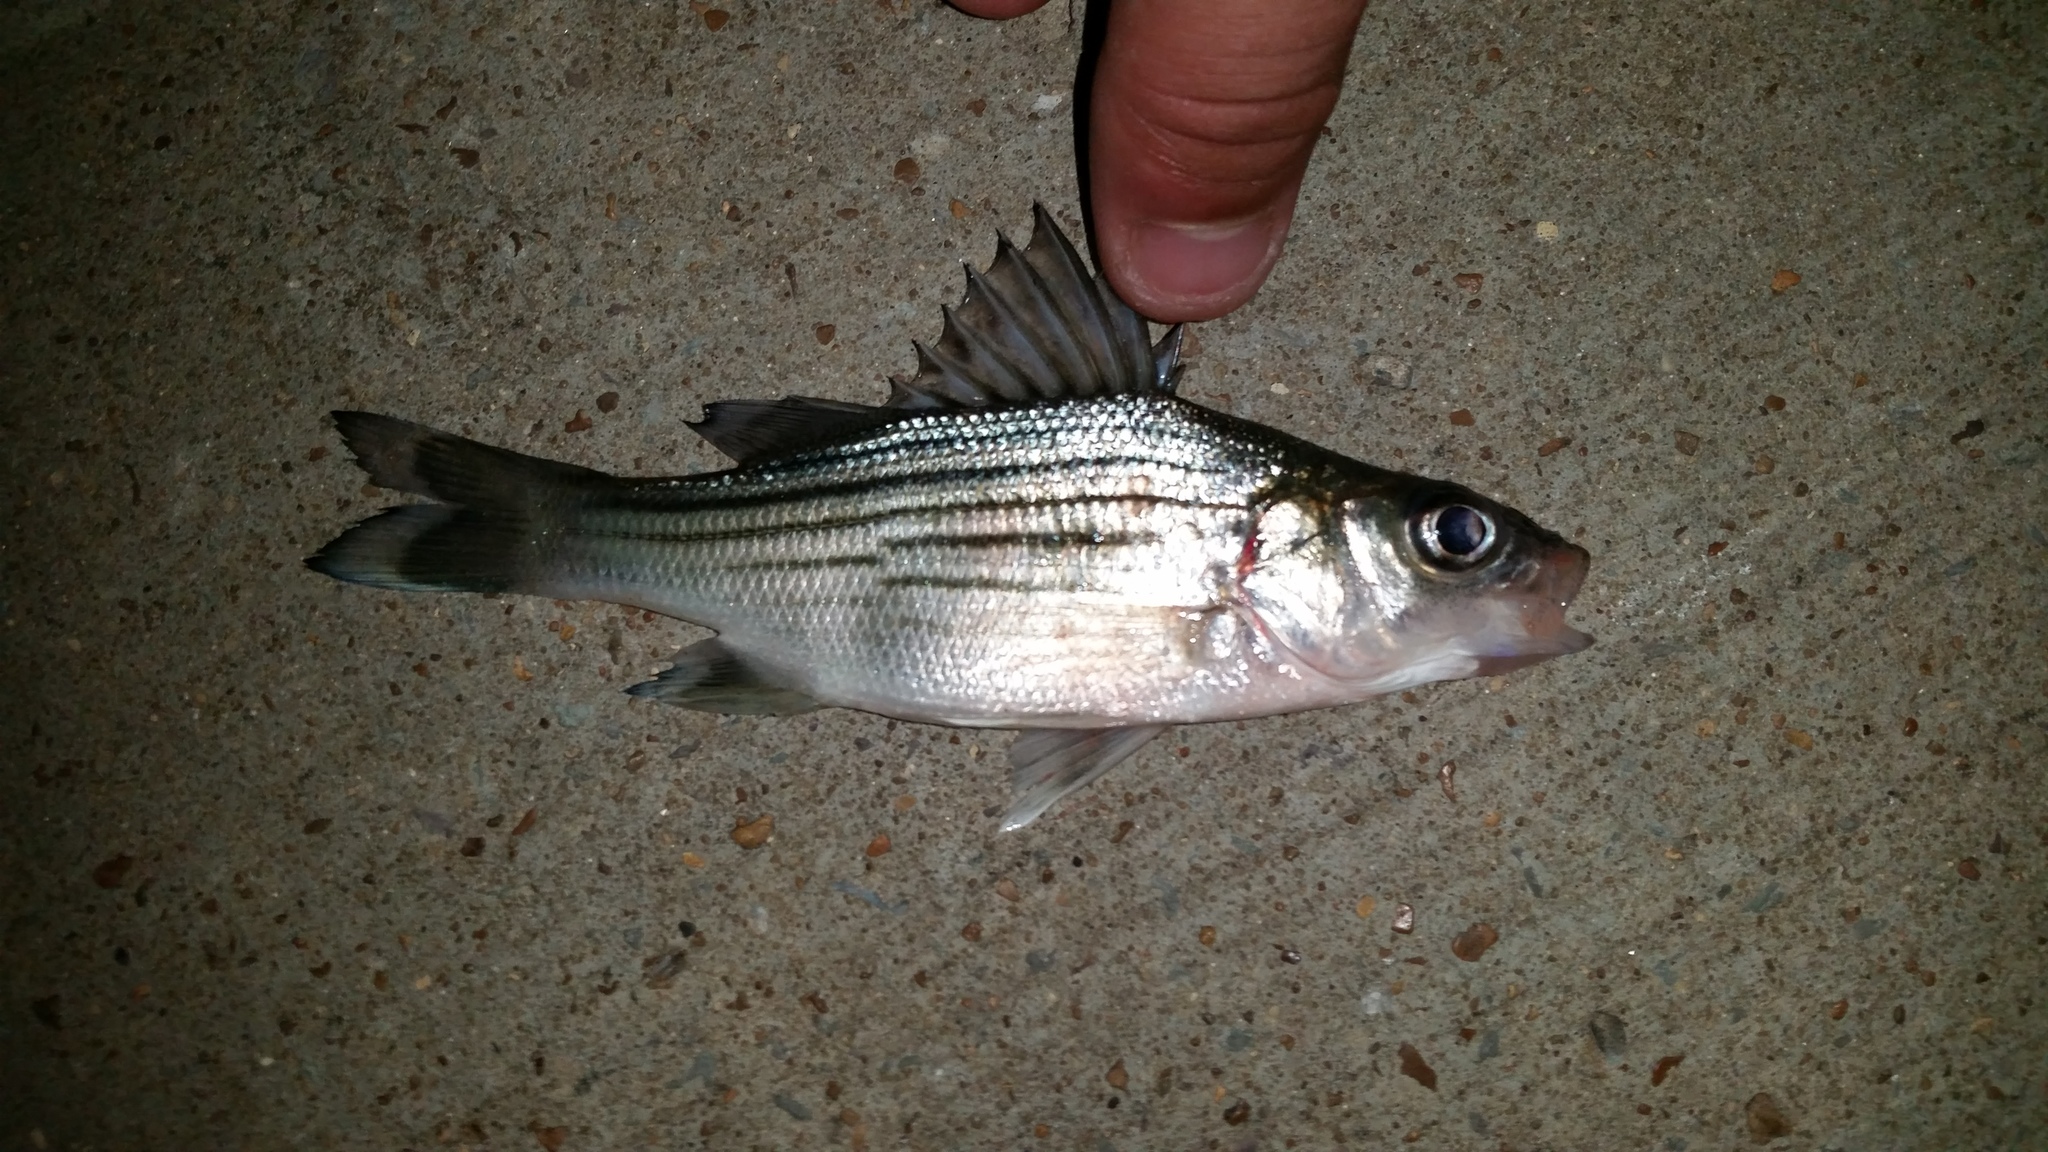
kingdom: Animalia
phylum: Chordata
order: Perciformes
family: Moronidae
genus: Morone
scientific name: Morone mississippiensis
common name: Yellow bass
